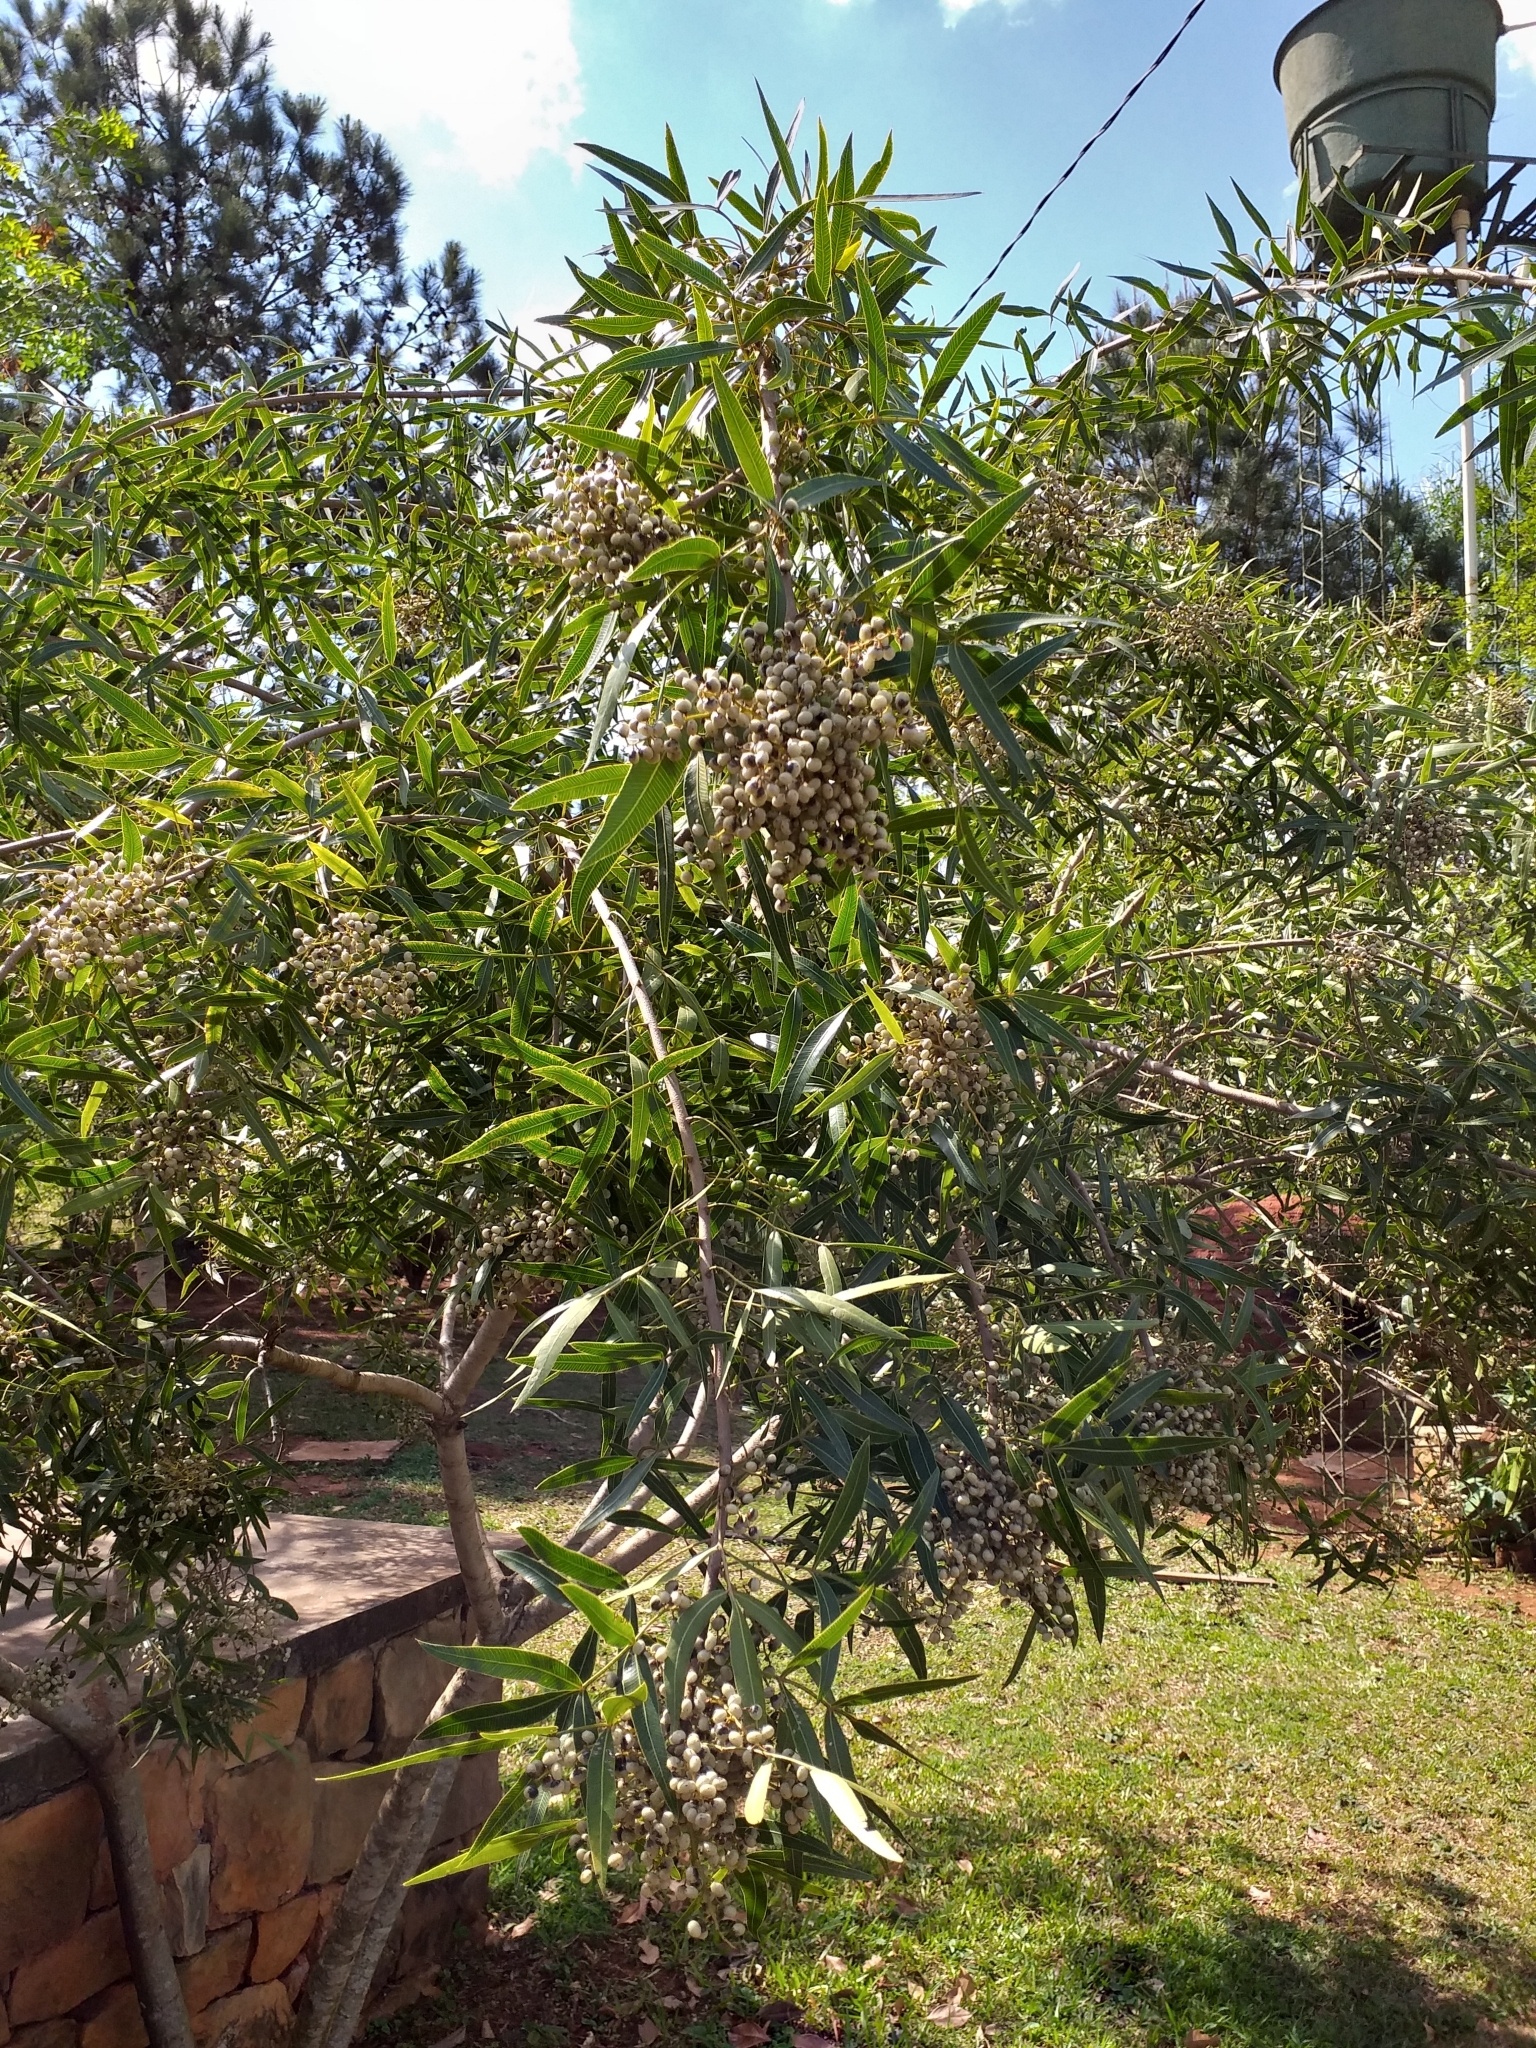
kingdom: Plantae
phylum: Tracheophyta
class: Magnoliopsida
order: Sapindales
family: Anacardiaceae
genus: Lithraea
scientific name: Lithraea molleoides
